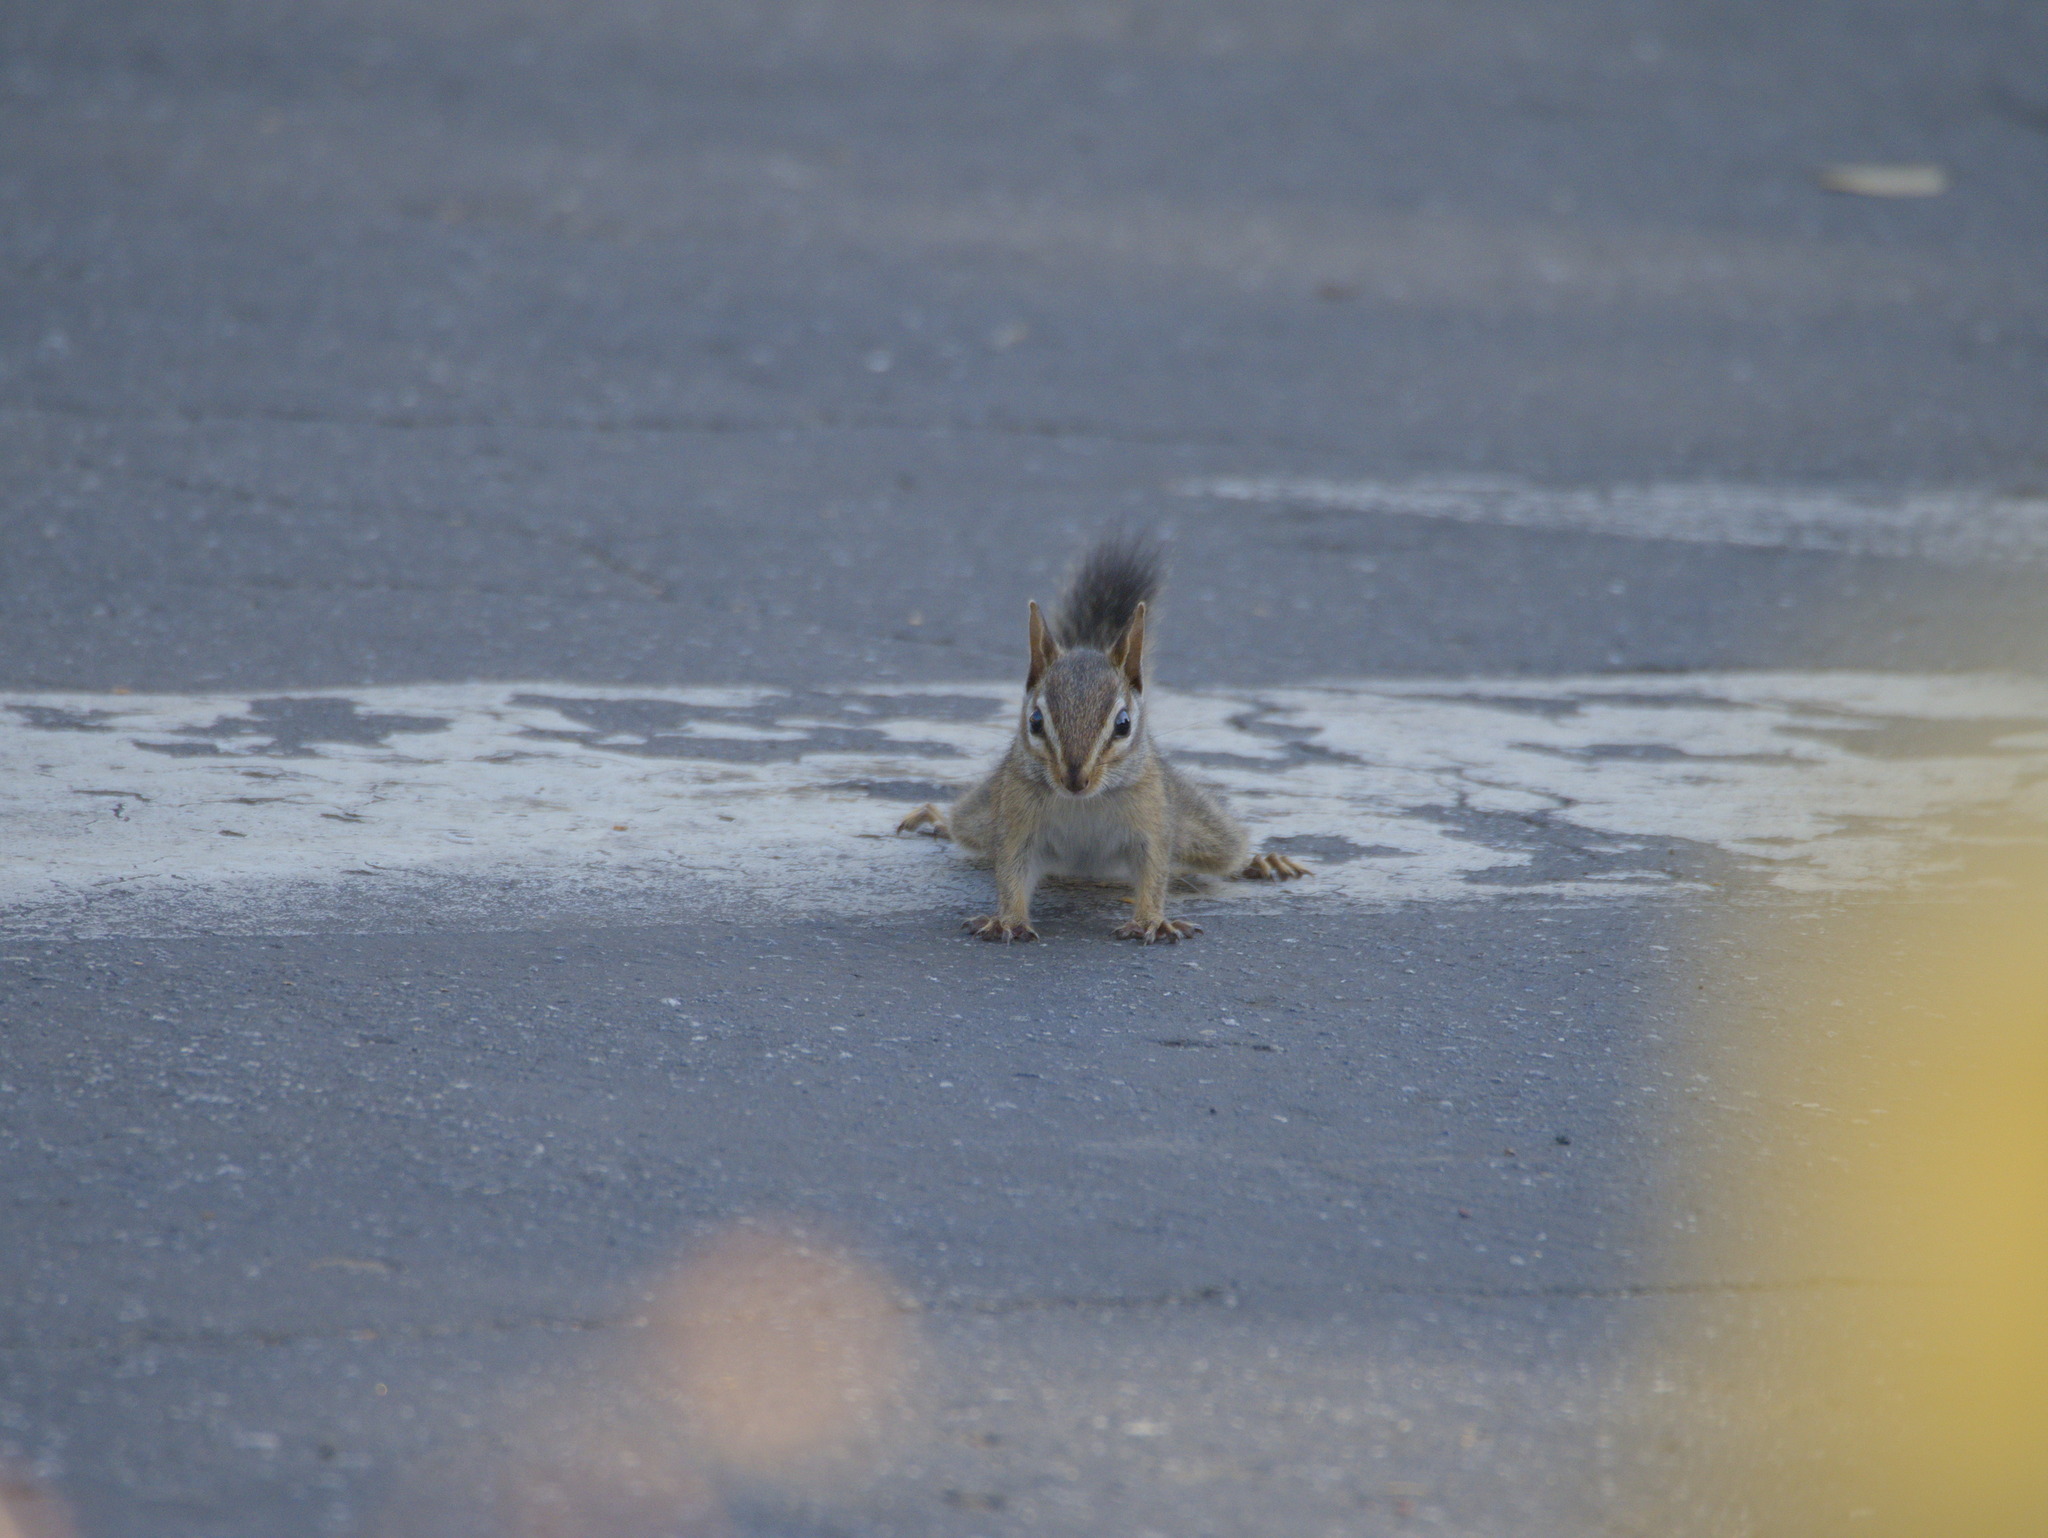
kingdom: Animalia
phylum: Chordata
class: Mammalia
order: Rodentia
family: Sciuridae
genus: Tamias
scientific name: Tamias merriami
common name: Merriam's chipmunk
